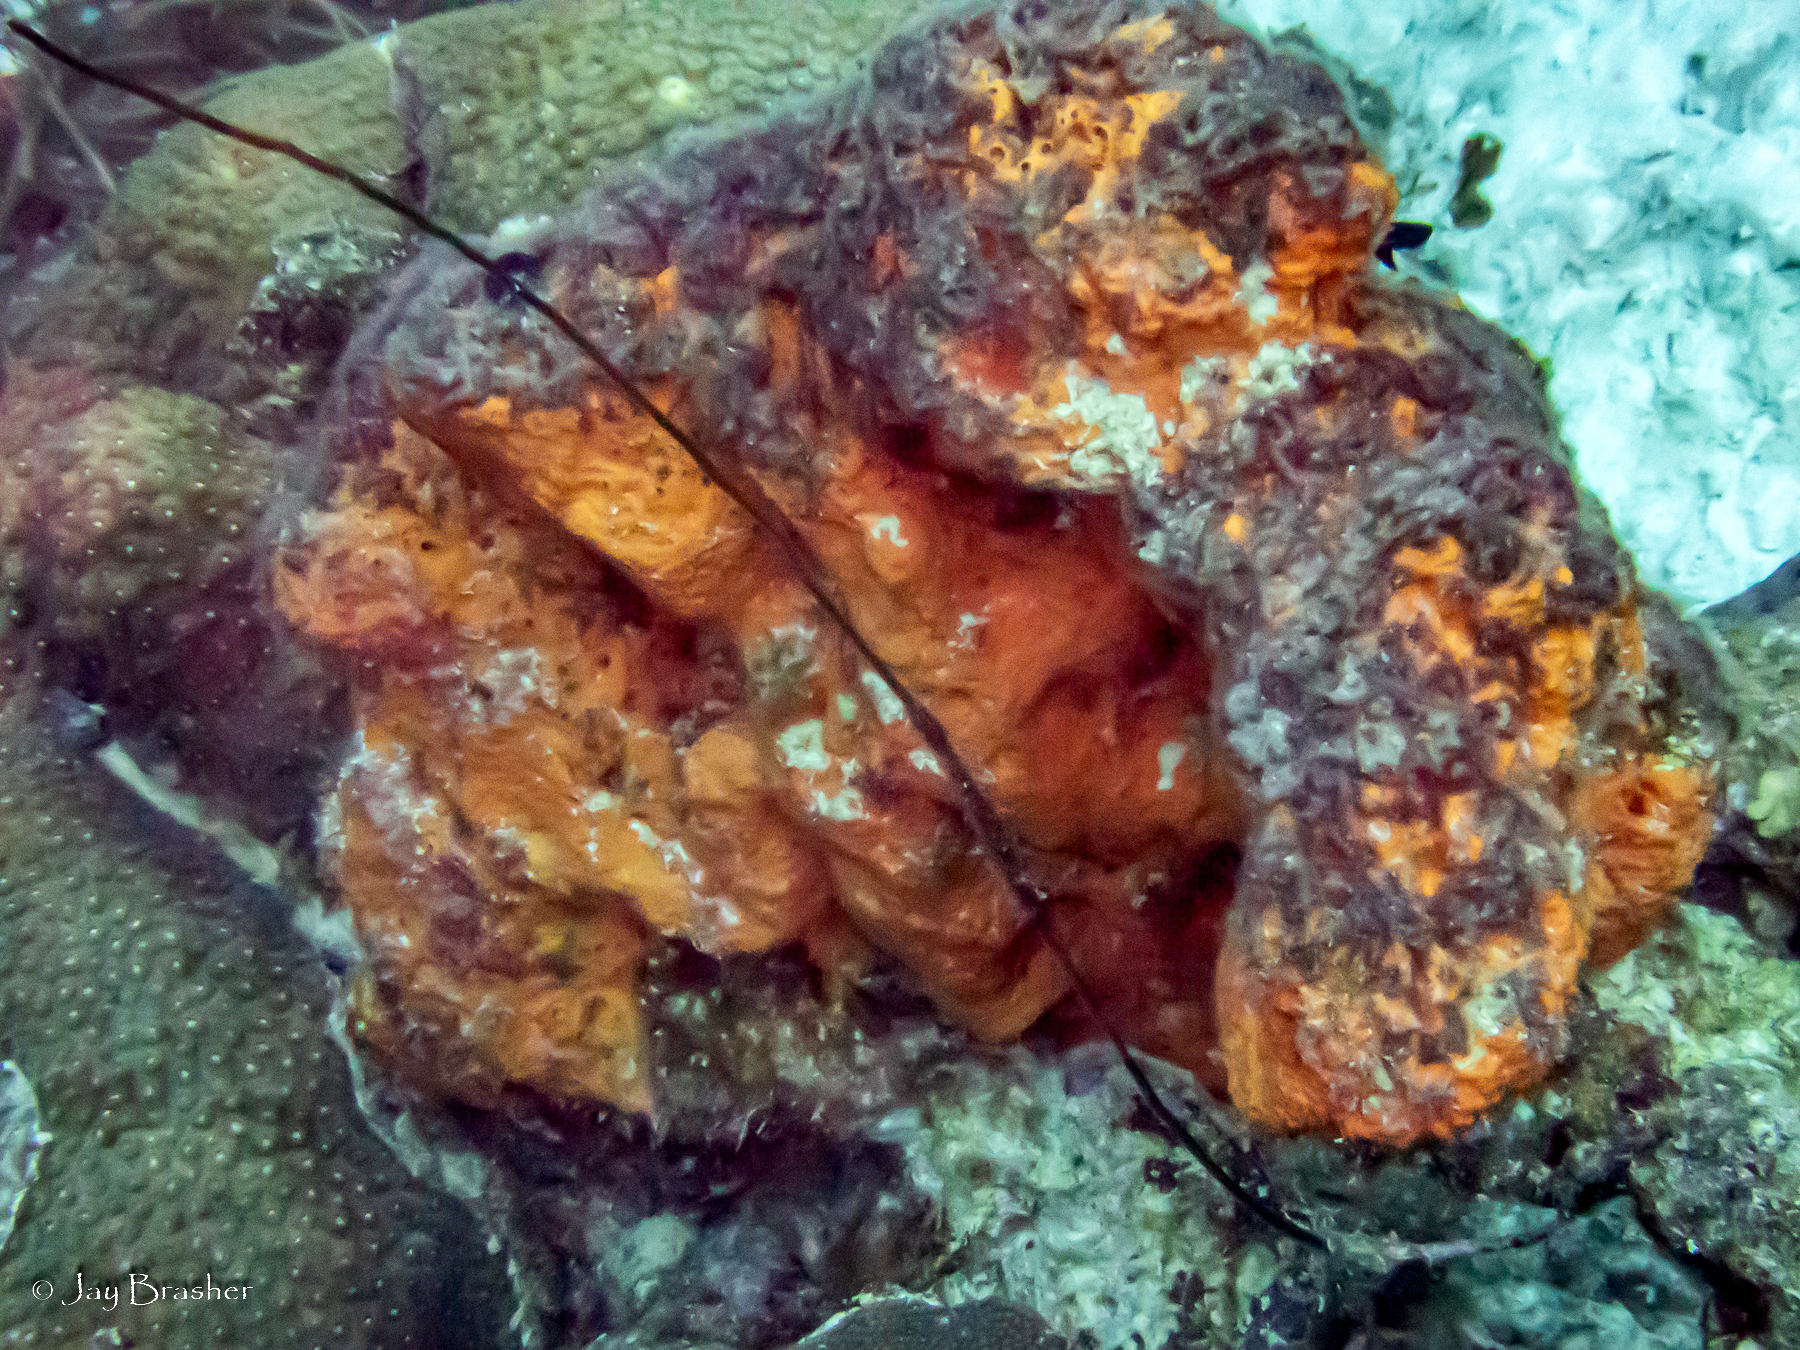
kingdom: Animalia
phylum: Cnidaria
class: Anthozoa
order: Antipatharia
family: Antipathidae
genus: Stichopathes
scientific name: Stichopathes luetkeni
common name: Black wire coral
